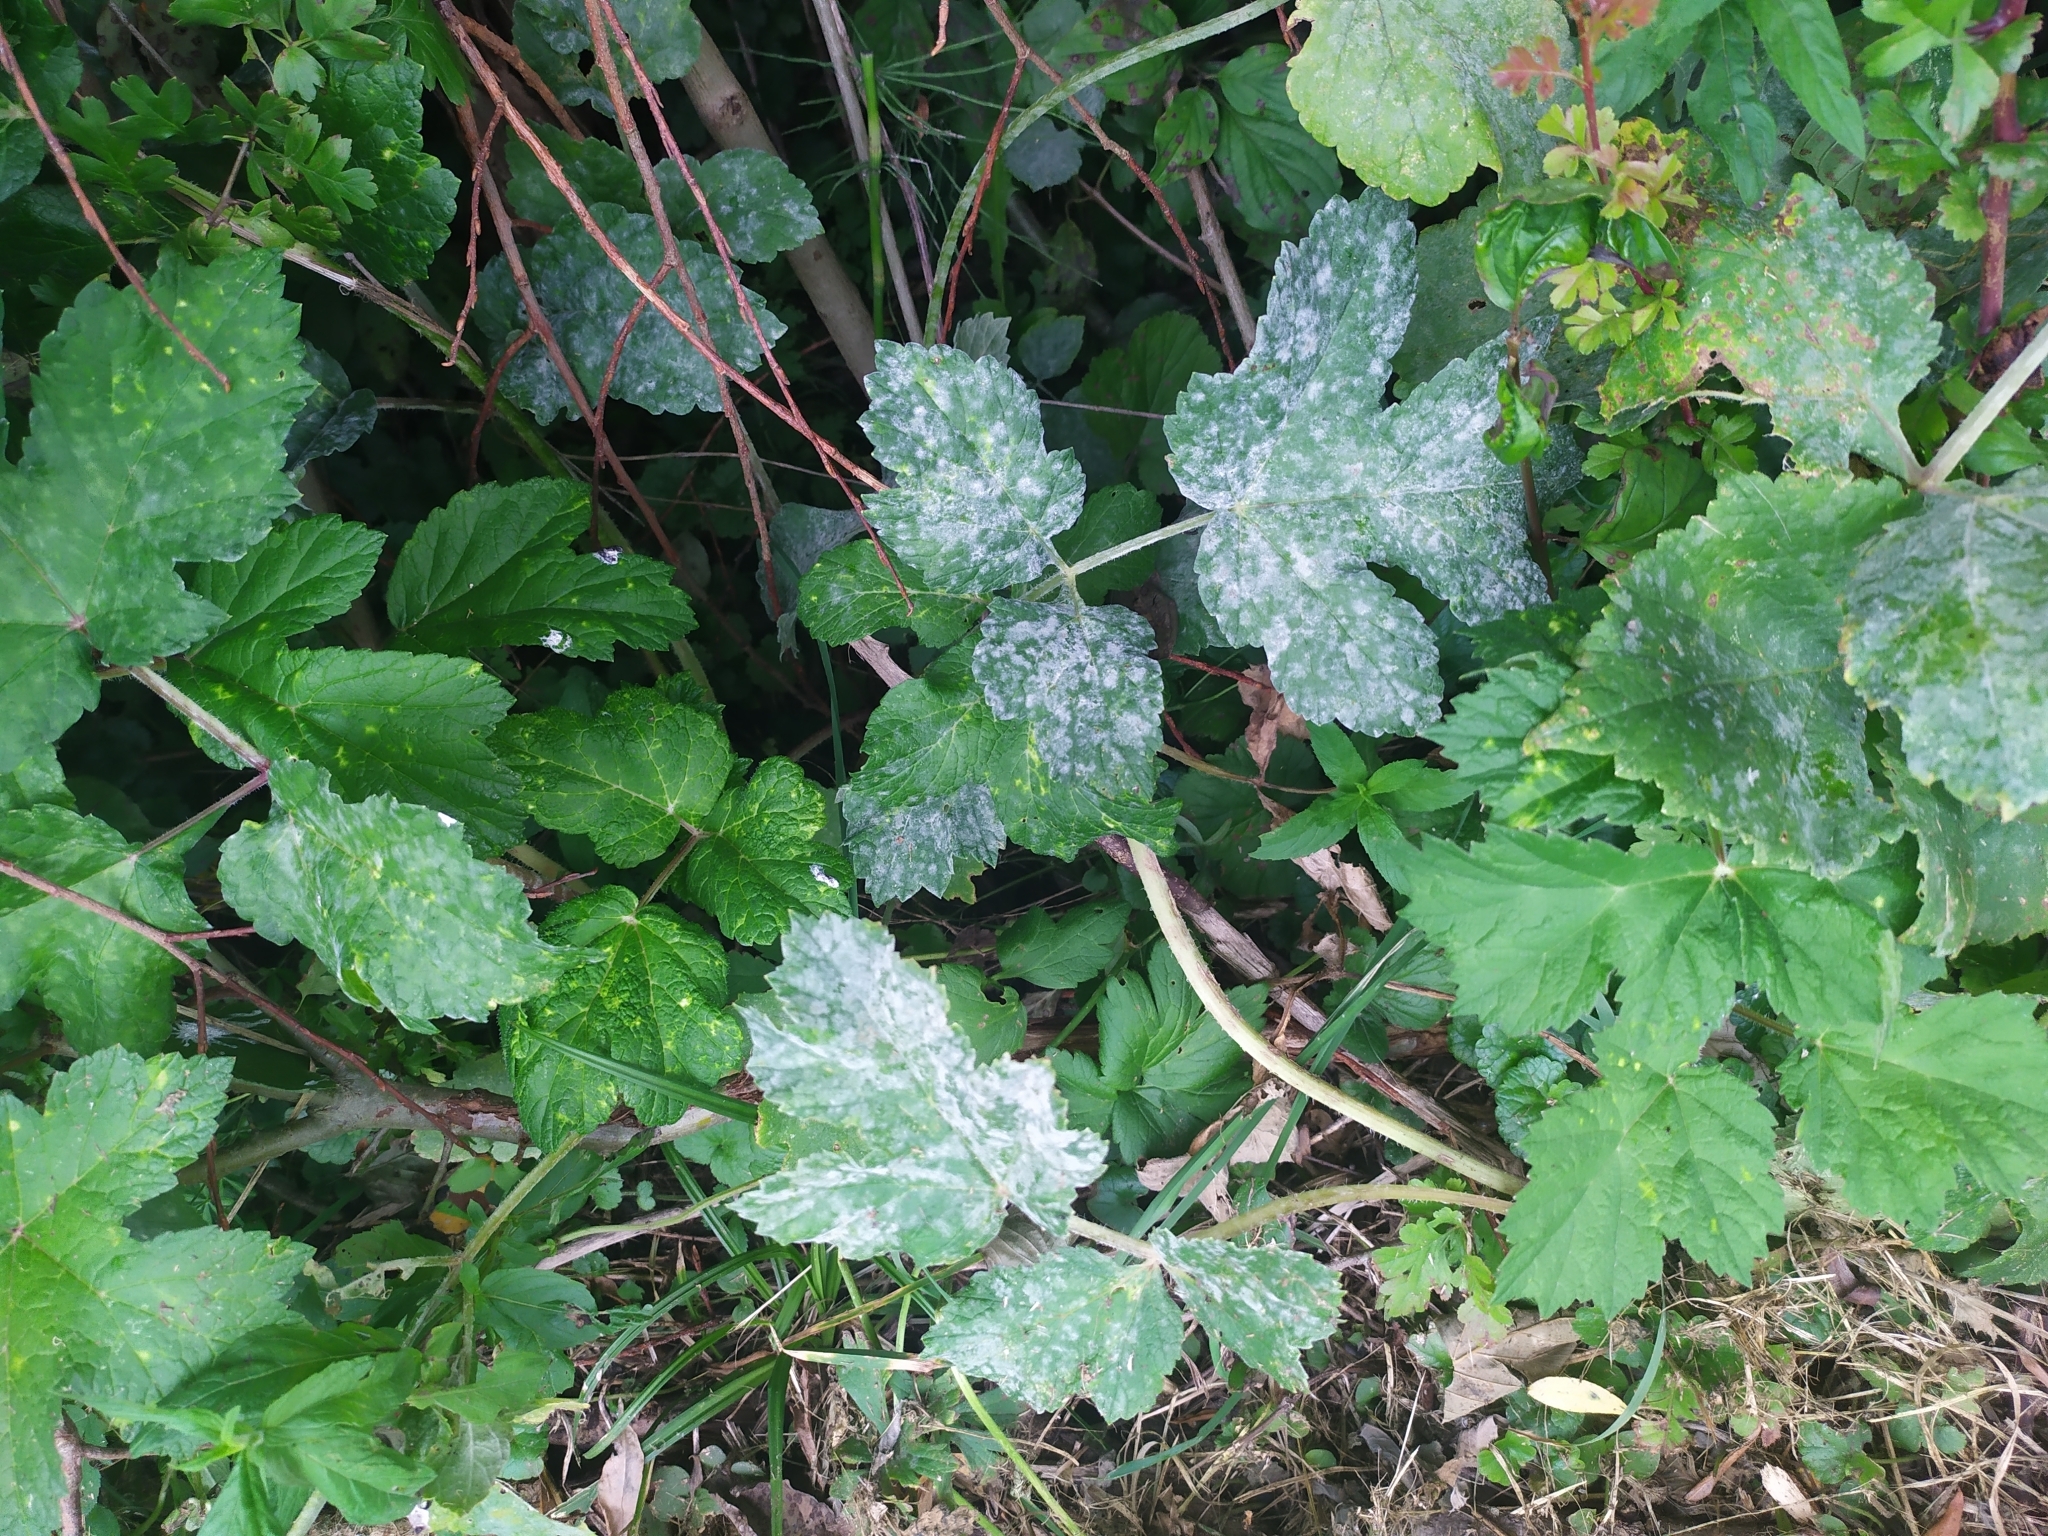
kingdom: Fungi
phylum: Ascomycota
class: Leotiomycetes
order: Helotiales
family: Erysiphaceae
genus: Erysiphe
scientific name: Erysiphe heraclei
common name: Umbellifer mildew
